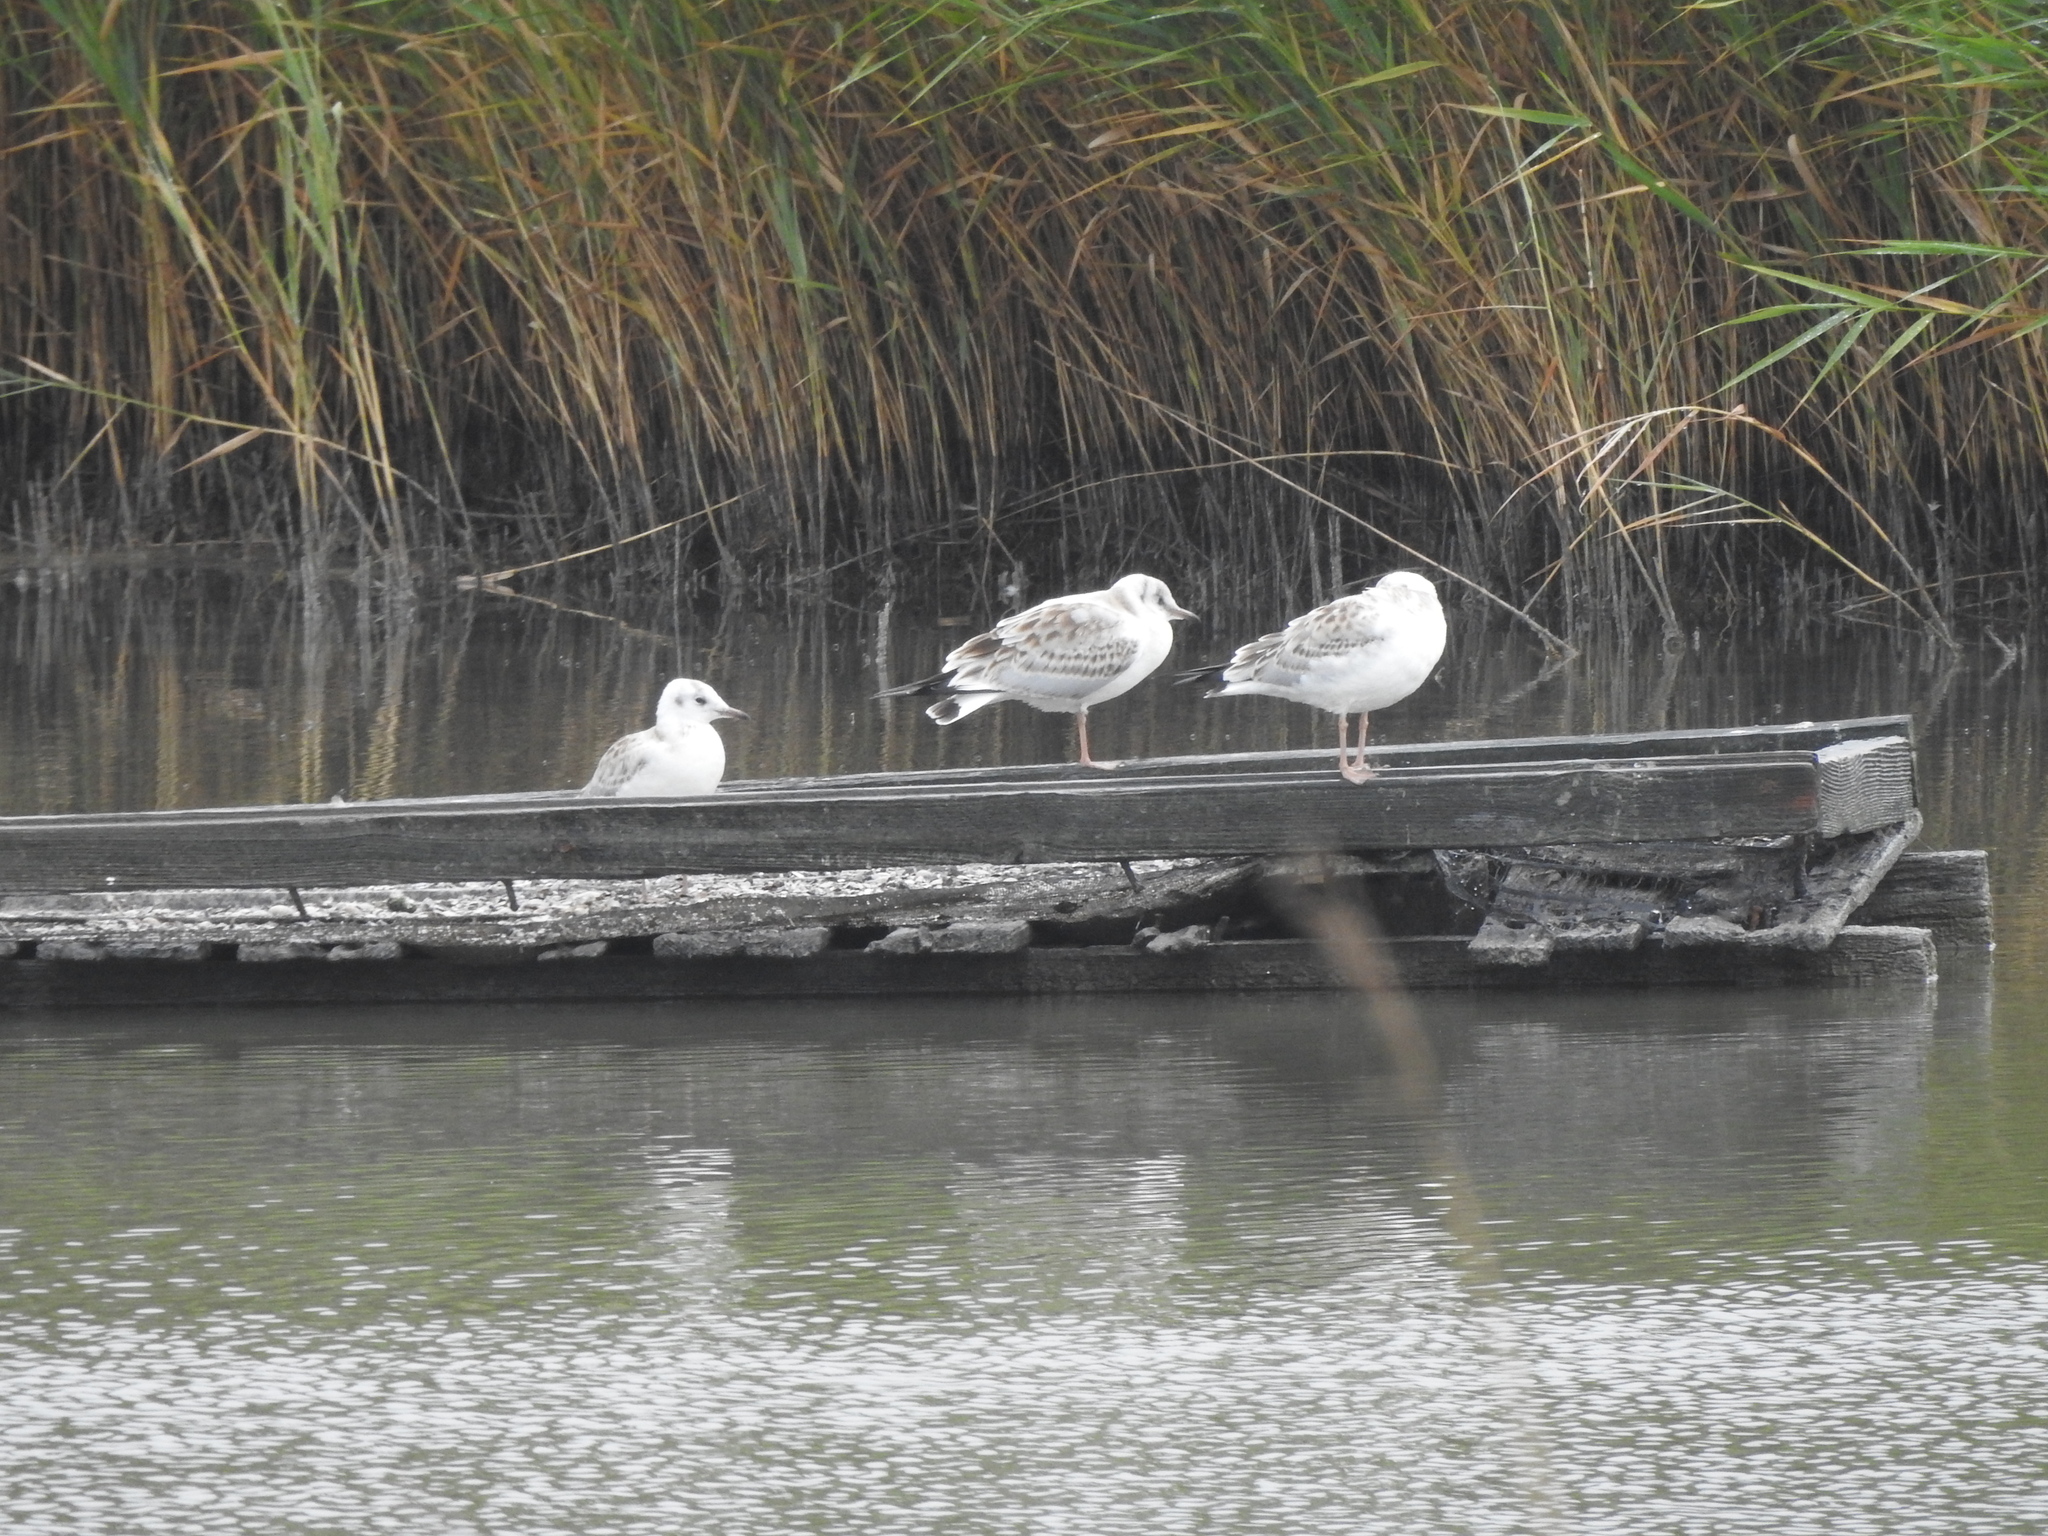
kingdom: Animalia
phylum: Chordata
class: Aves
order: Charadriiformes
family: Laridae
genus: Chroicocephalus
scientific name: Chroicocephalus ridibundus
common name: Black-headed gull
